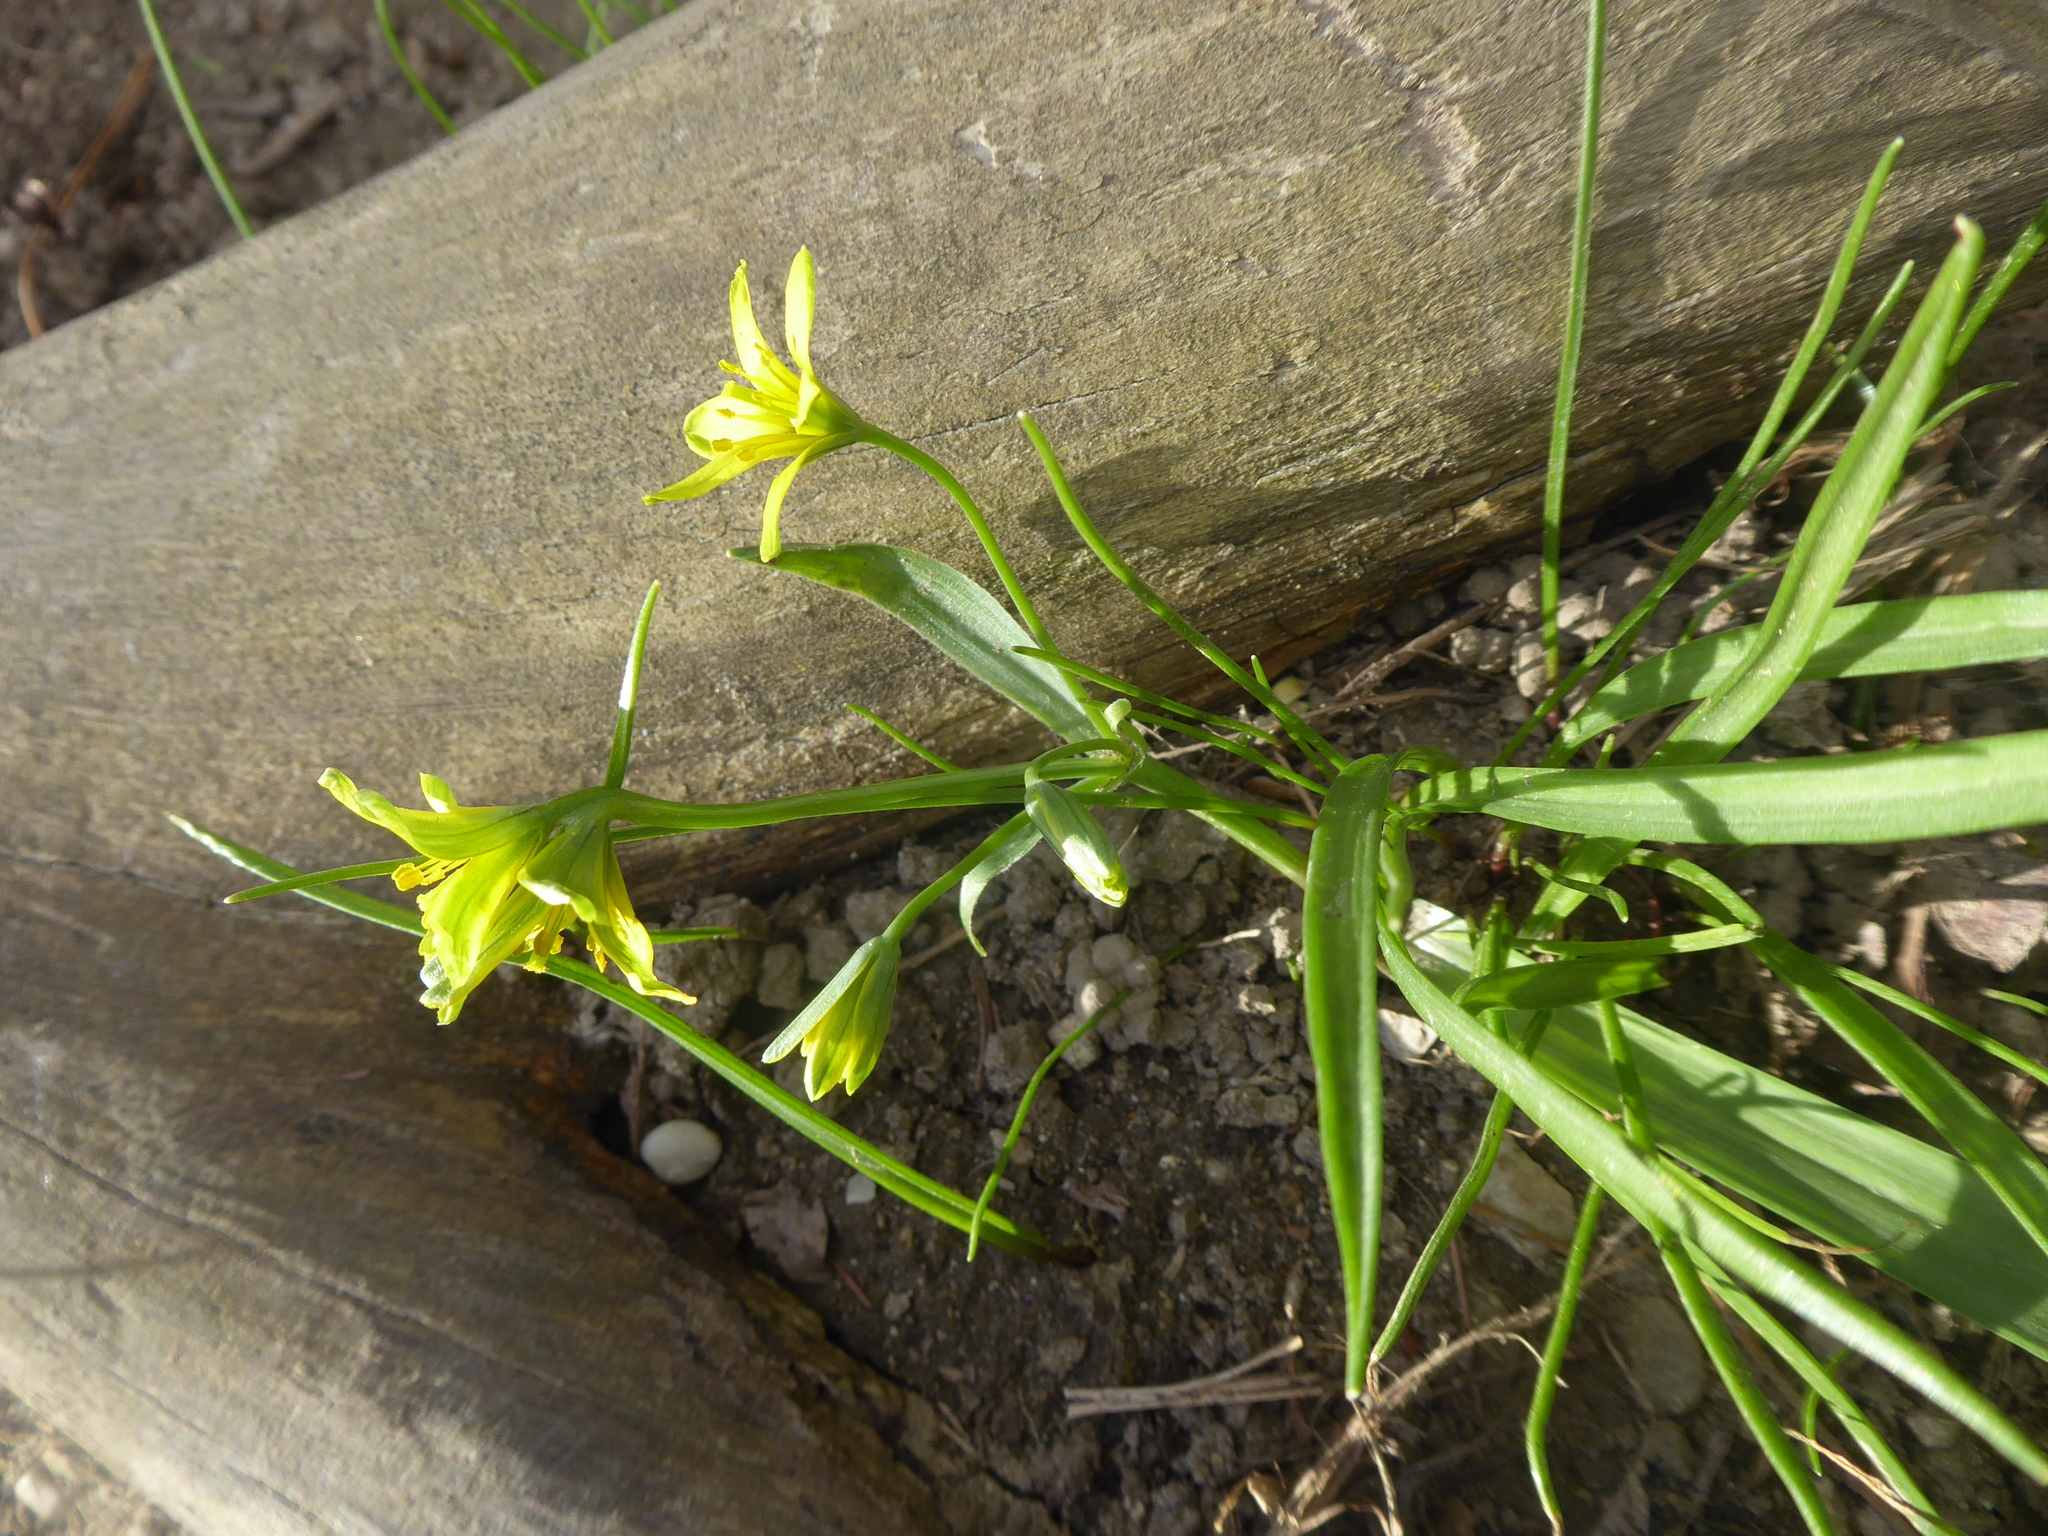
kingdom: Plantae
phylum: Tracheophyta
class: Liliopsida
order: Liliales
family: Liliaceae
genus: Gagea
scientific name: Gagea lutea
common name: Yellow star-of-bethlehem
